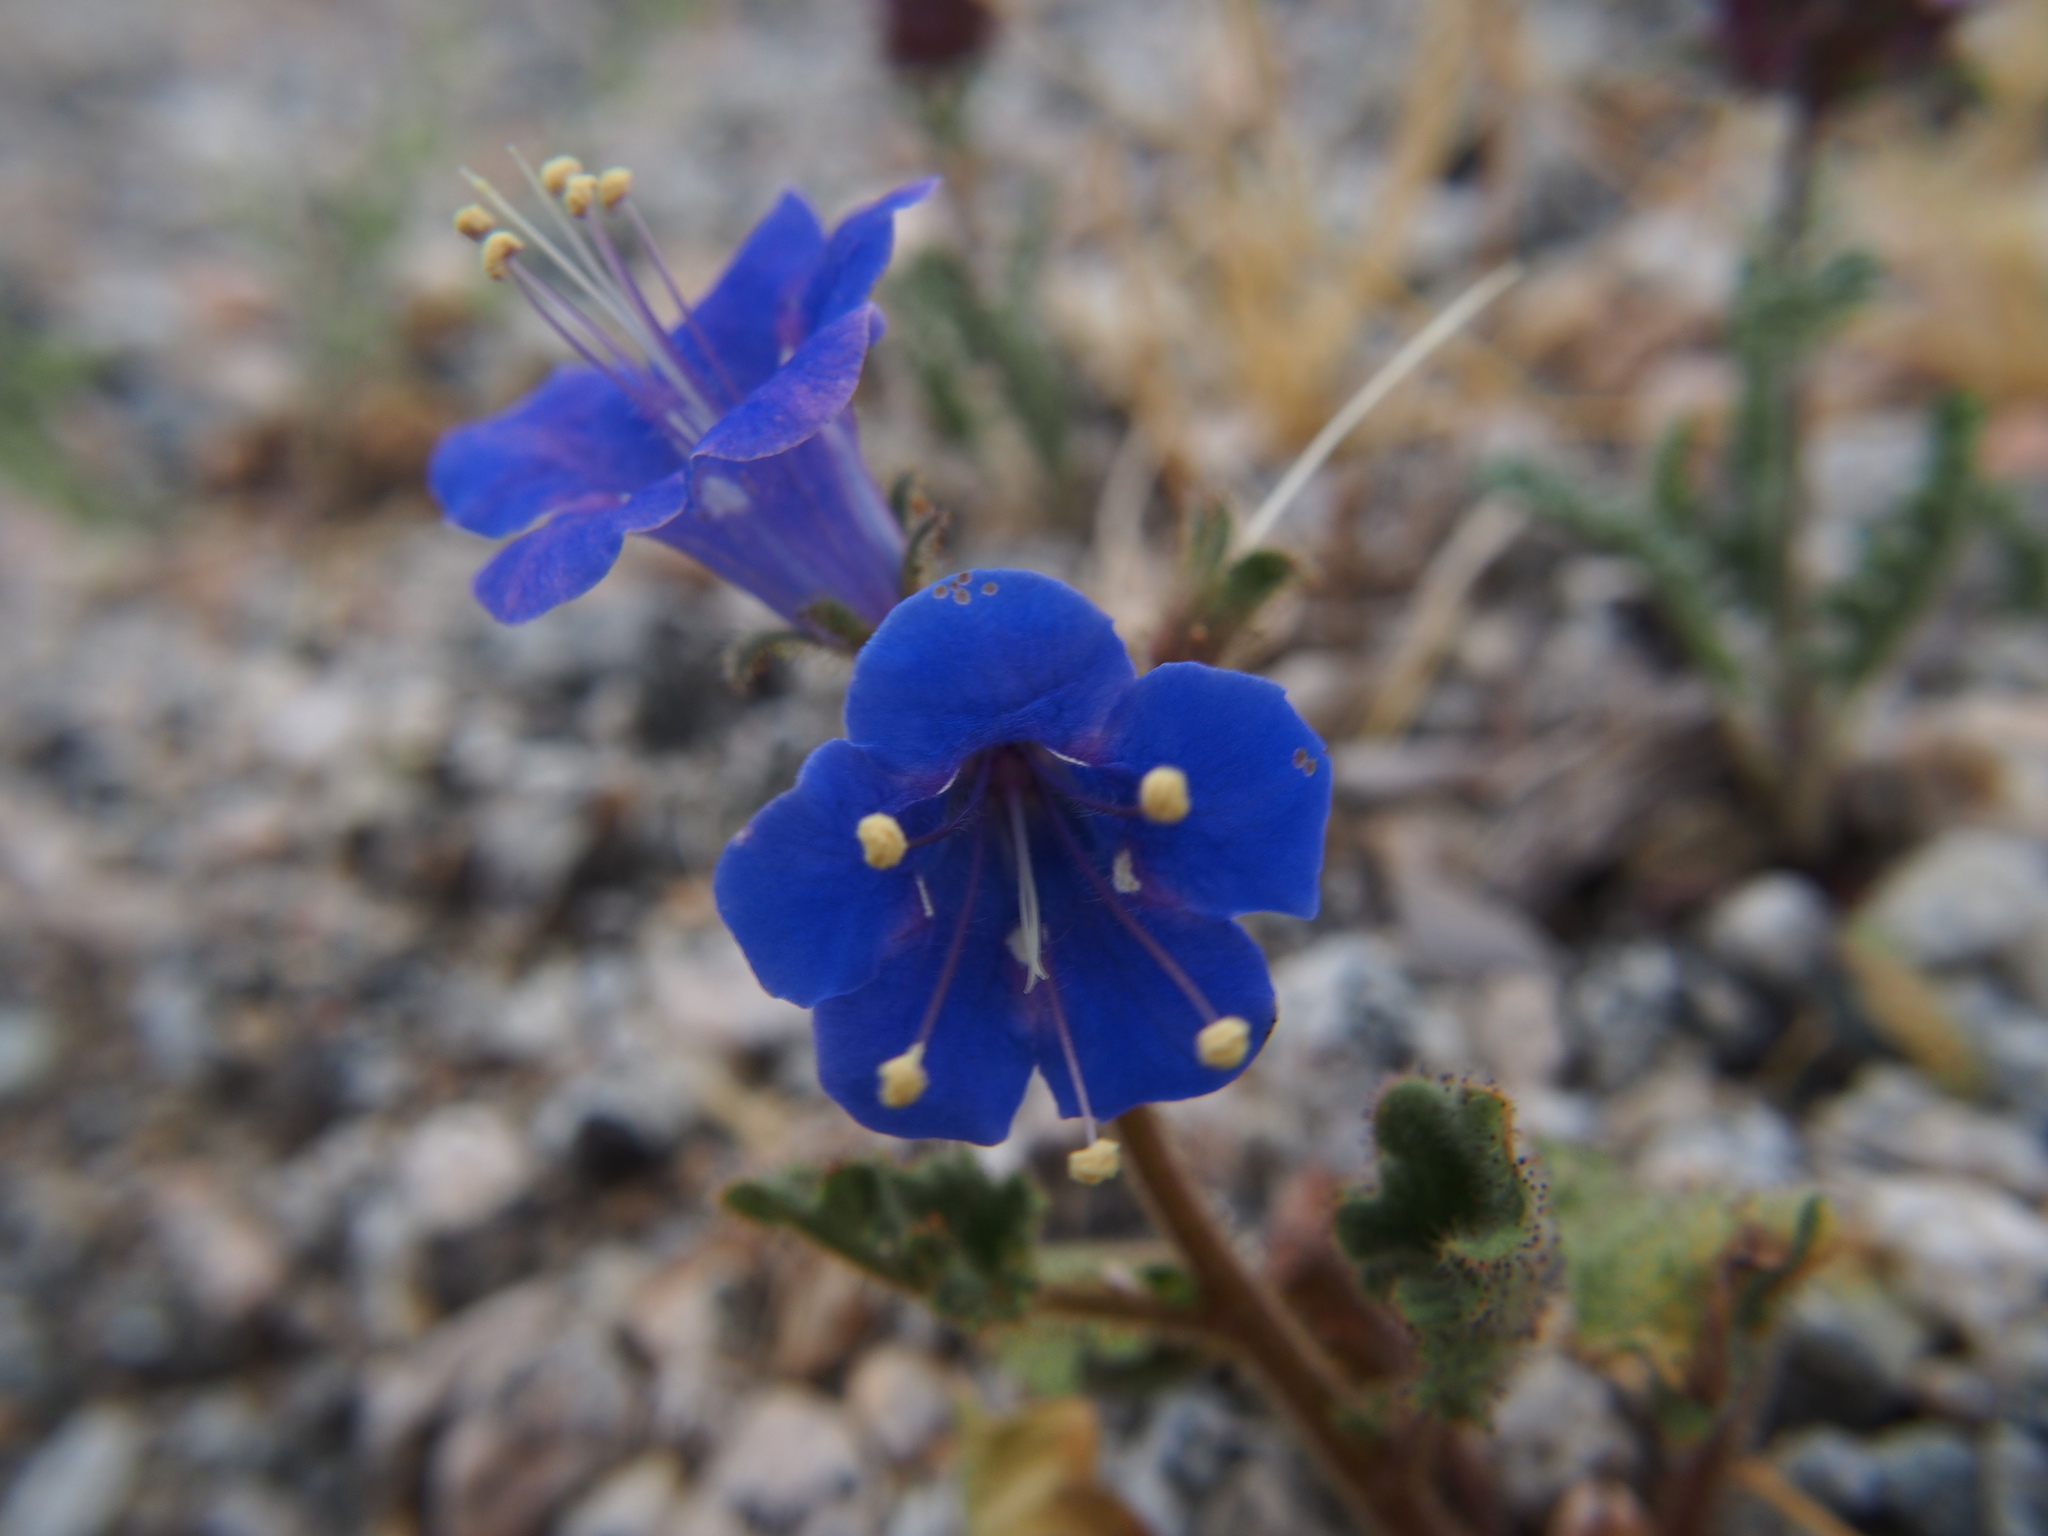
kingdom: Plantae
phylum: Tracheophyta
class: Magnoliopsida
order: Boraginales
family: Hydrophyllaceae
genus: Phacelia
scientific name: Phacelia campanularia
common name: California bluebell
